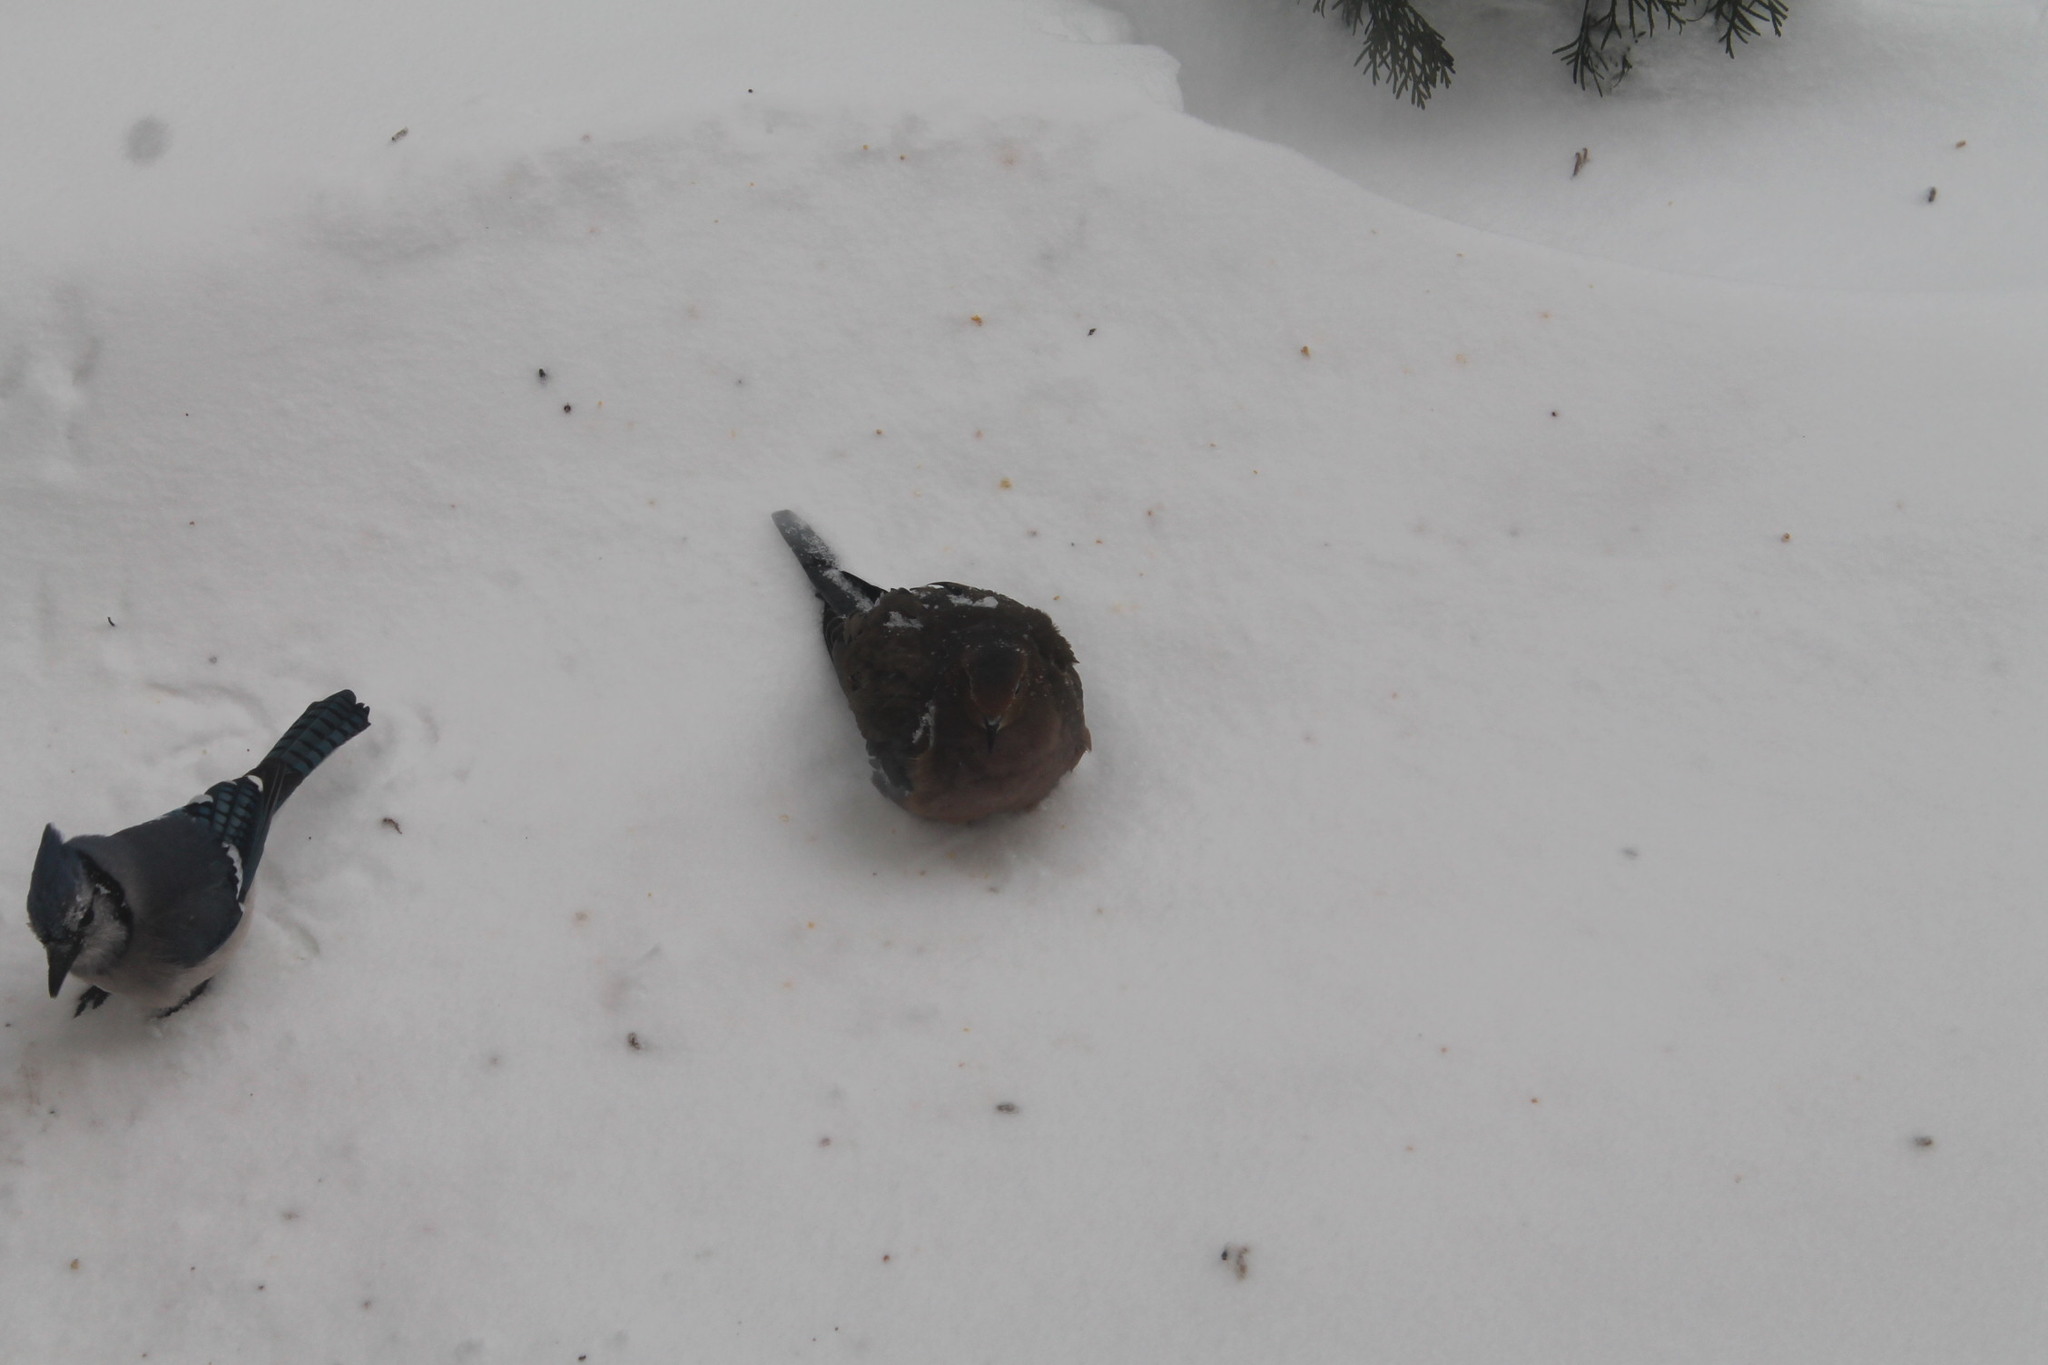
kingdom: Animalia
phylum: Chordata
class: Aves
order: Passeriformes
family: Corvidae
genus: Cyanocitta
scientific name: Cyanocitta cristata
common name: Blue jay
